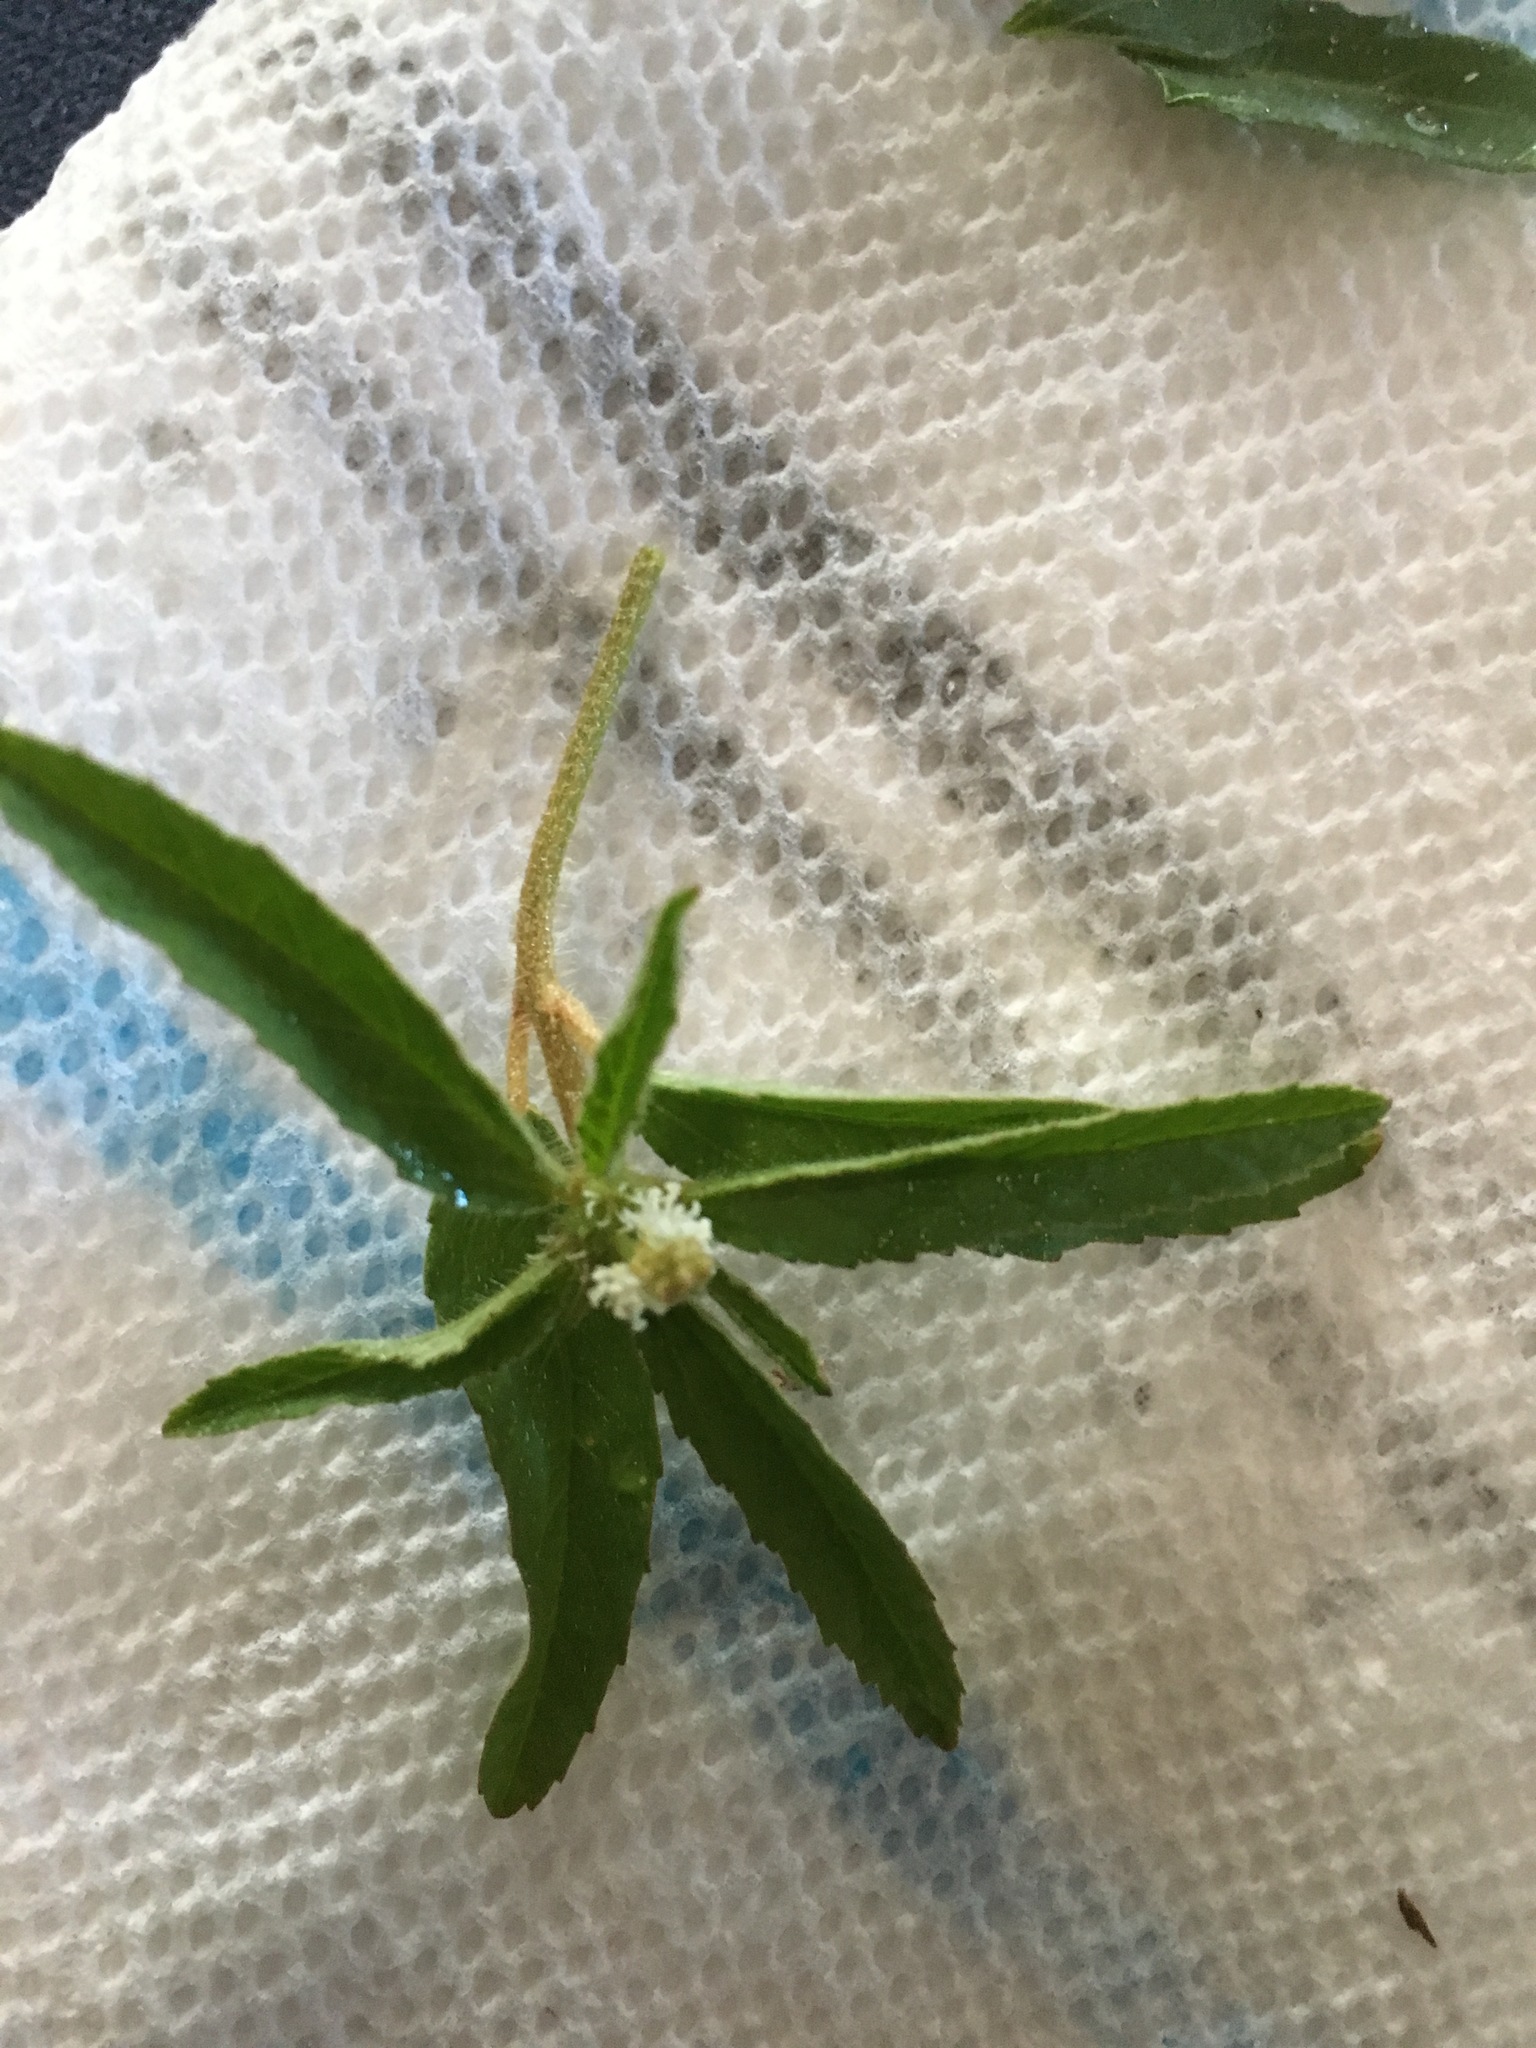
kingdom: Plantae
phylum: Tracheophyta
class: Magnoliopsida
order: Malpighiales
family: Euphorbiaceae
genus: Croton
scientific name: Croton glandulosus
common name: Tropic croton
